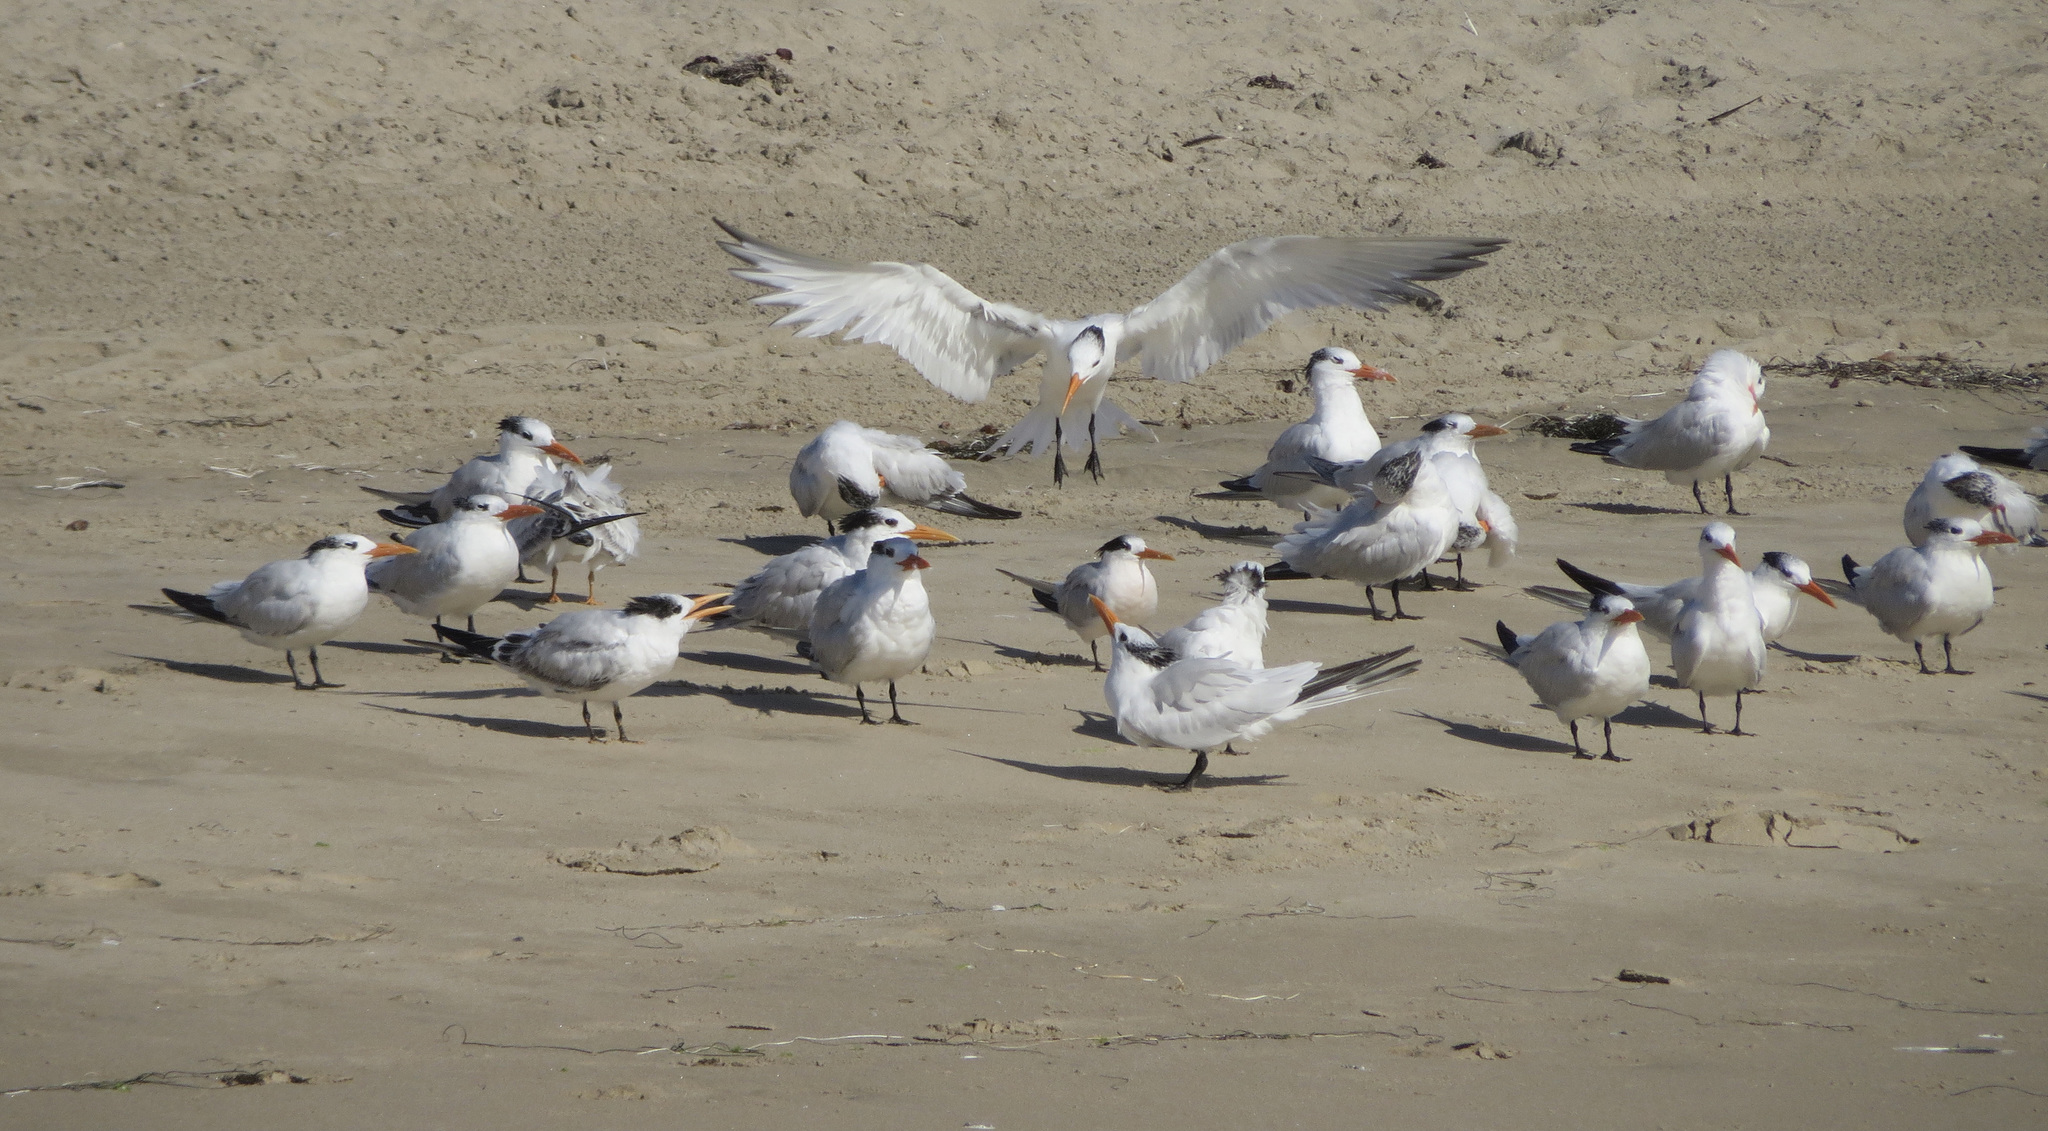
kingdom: Animalia
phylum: Chordata
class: Aves
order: Charadriiformes
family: Laridae
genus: Thalasseus
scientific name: Thalasseus maximus
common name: Royal tern
